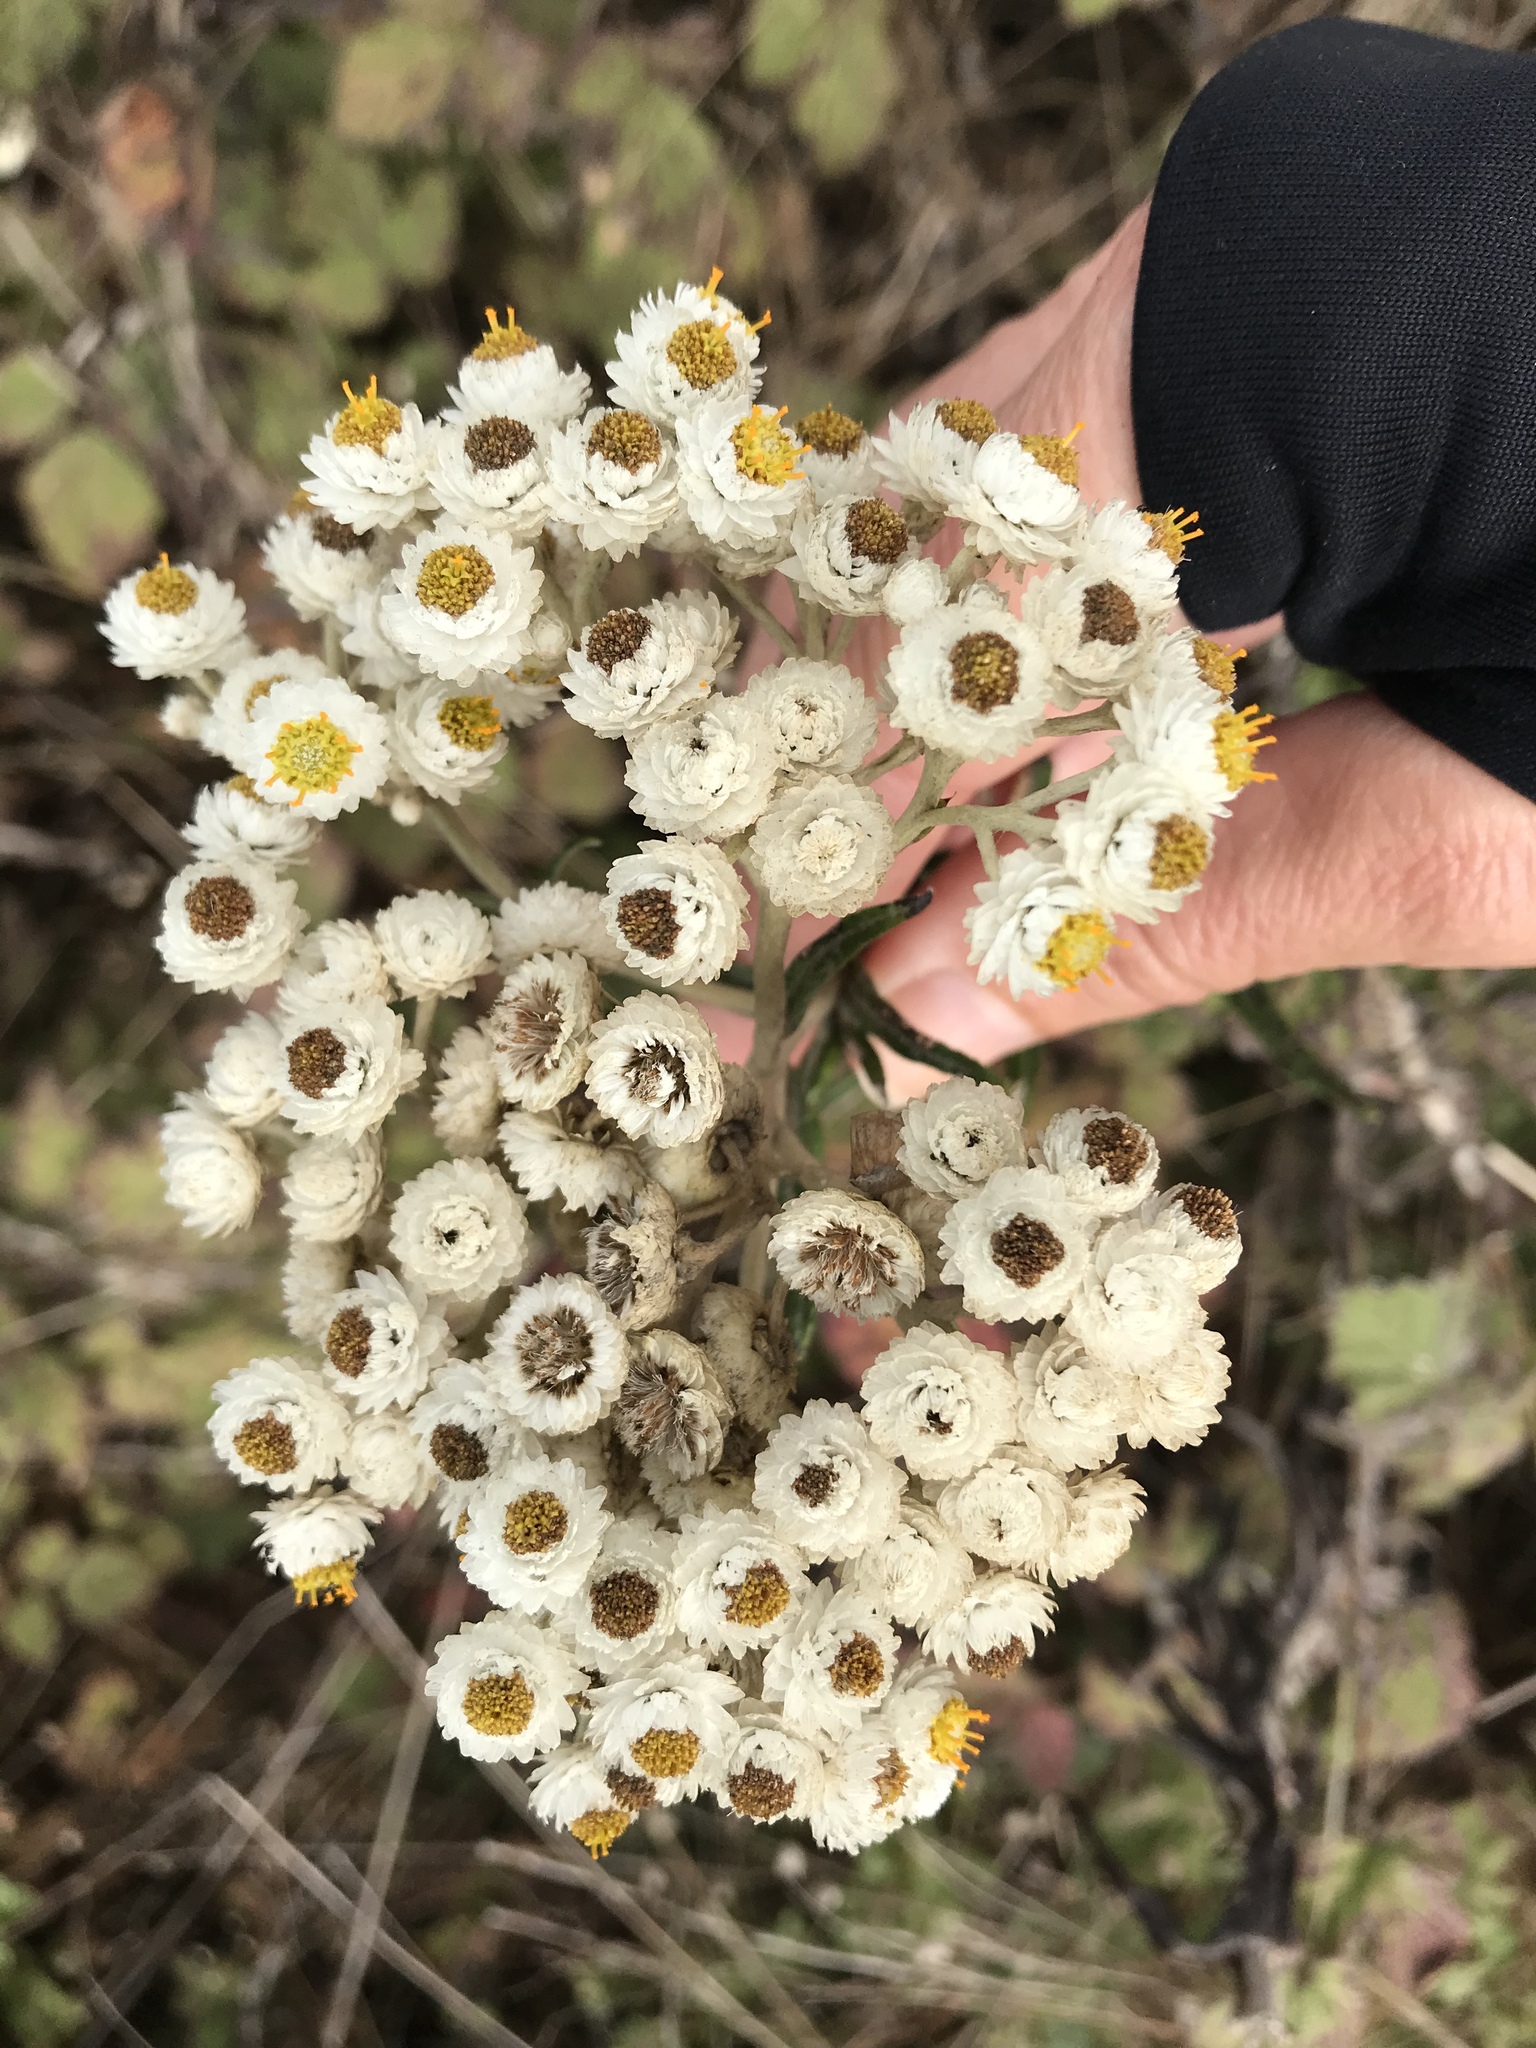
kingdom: Plantae
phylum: Tracheophyta
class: Magnoliopsida
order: Asterales
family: Asteraceae
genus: Anaphalis
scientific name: Anaphalis margaritacea
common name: Pearly everlasting
